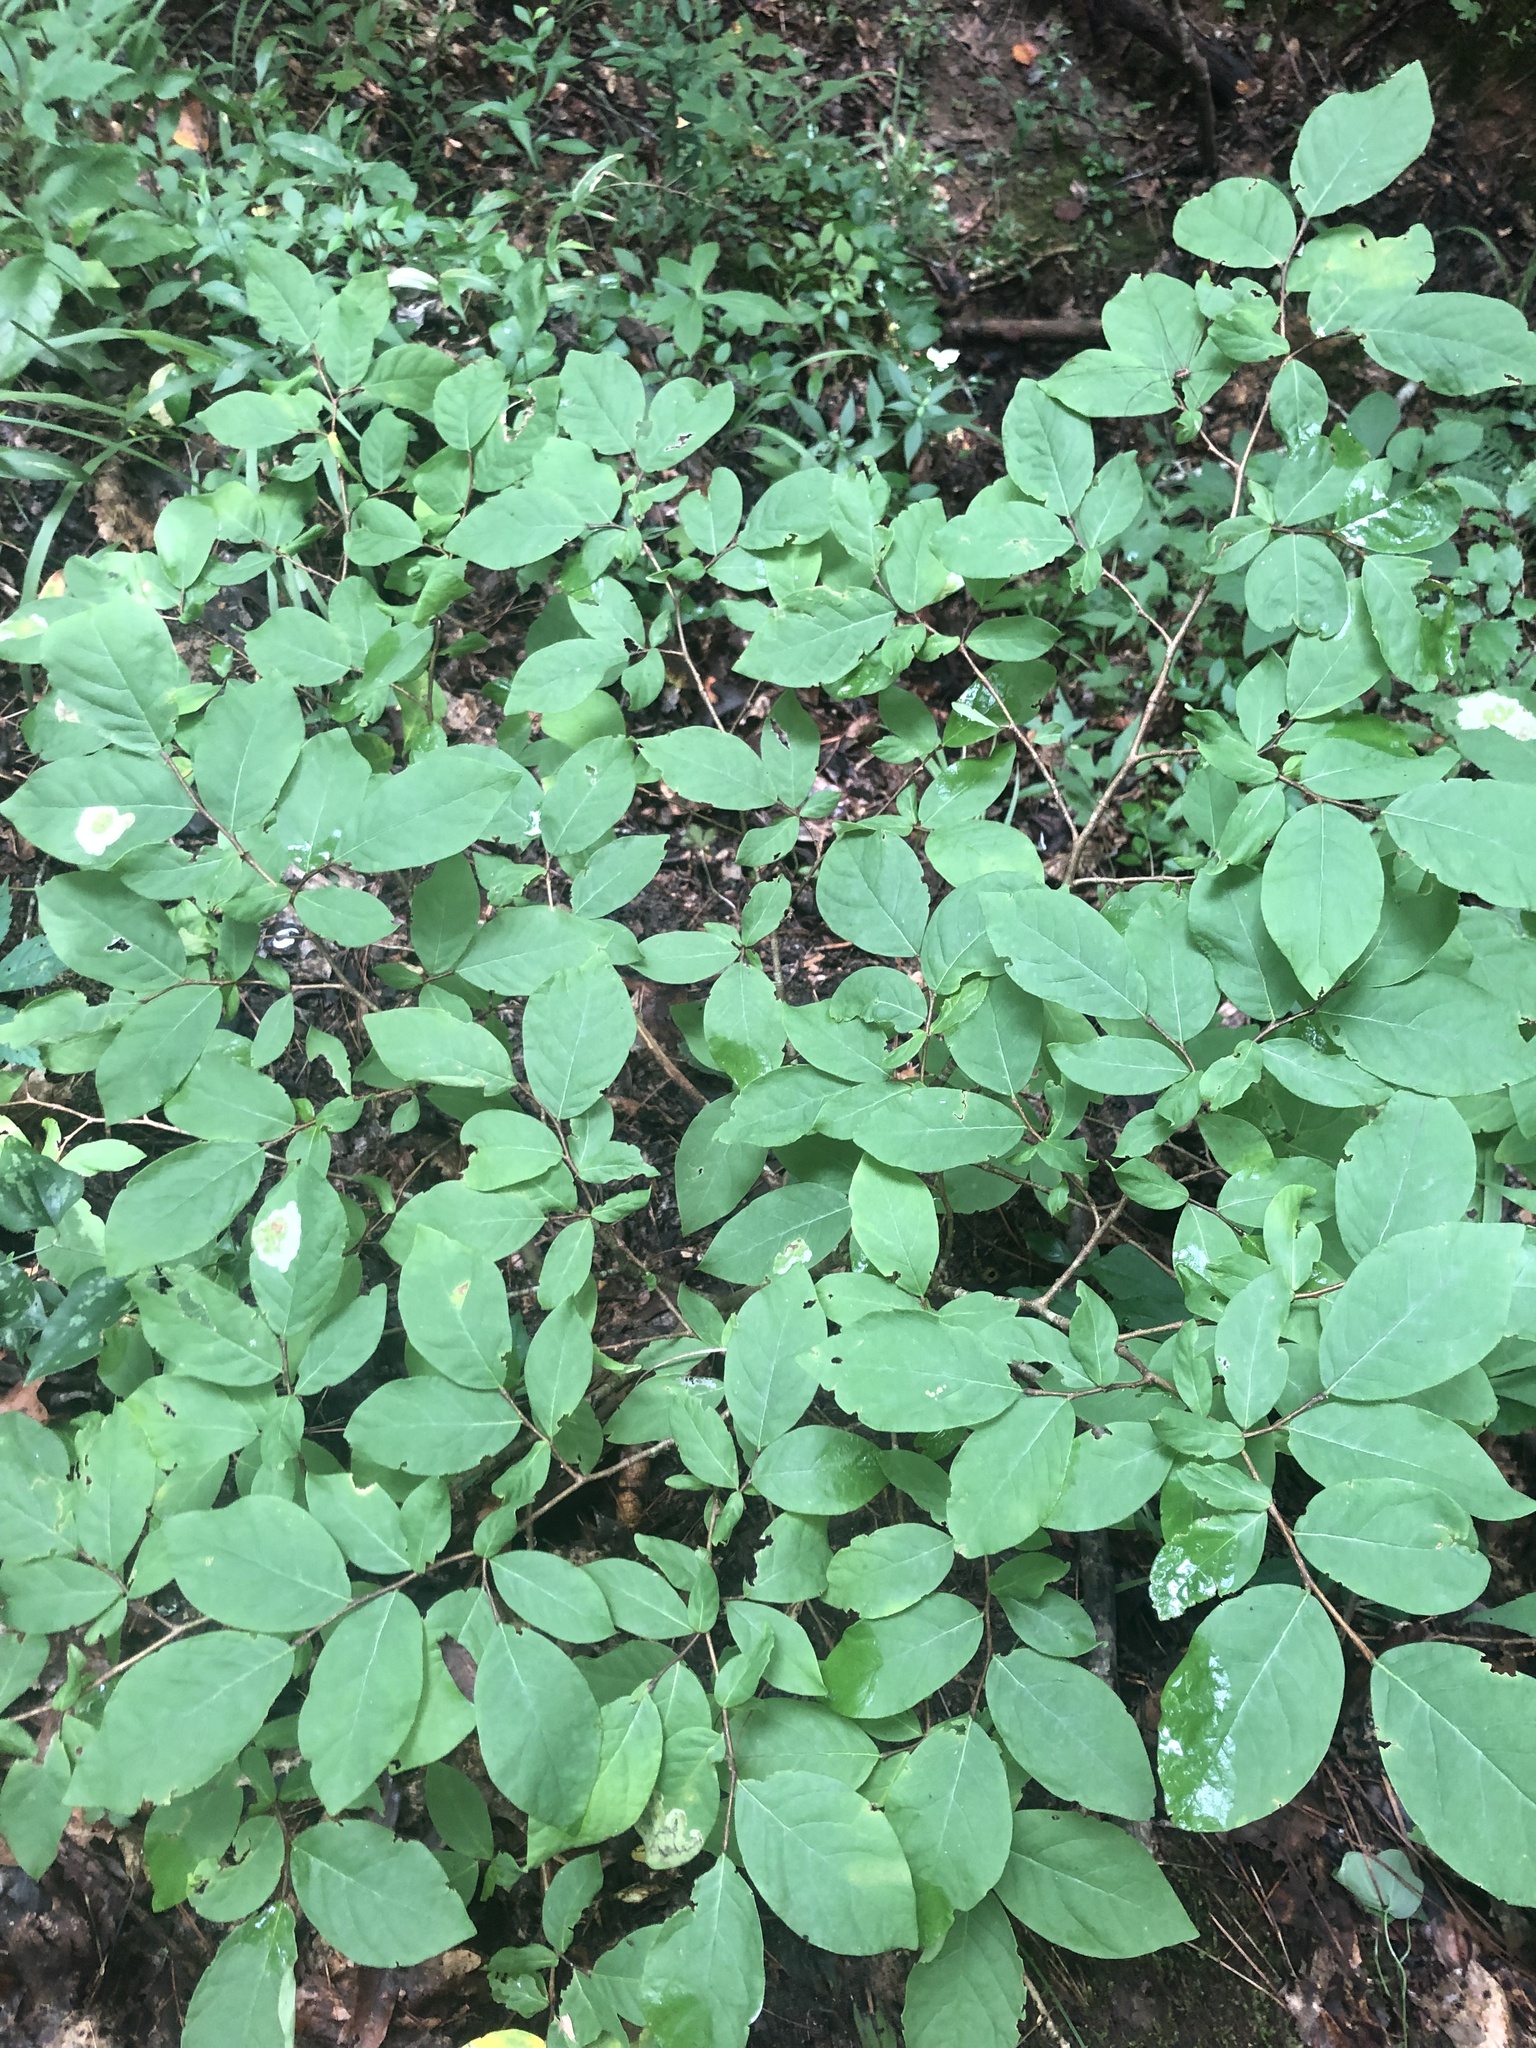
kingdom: Plantae
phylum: Tracheophyta
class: Magnoliopsida
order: Malvales
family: Thymelaeaceae
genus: Dirca
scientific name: Dirca palustris
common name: Leatherwood
